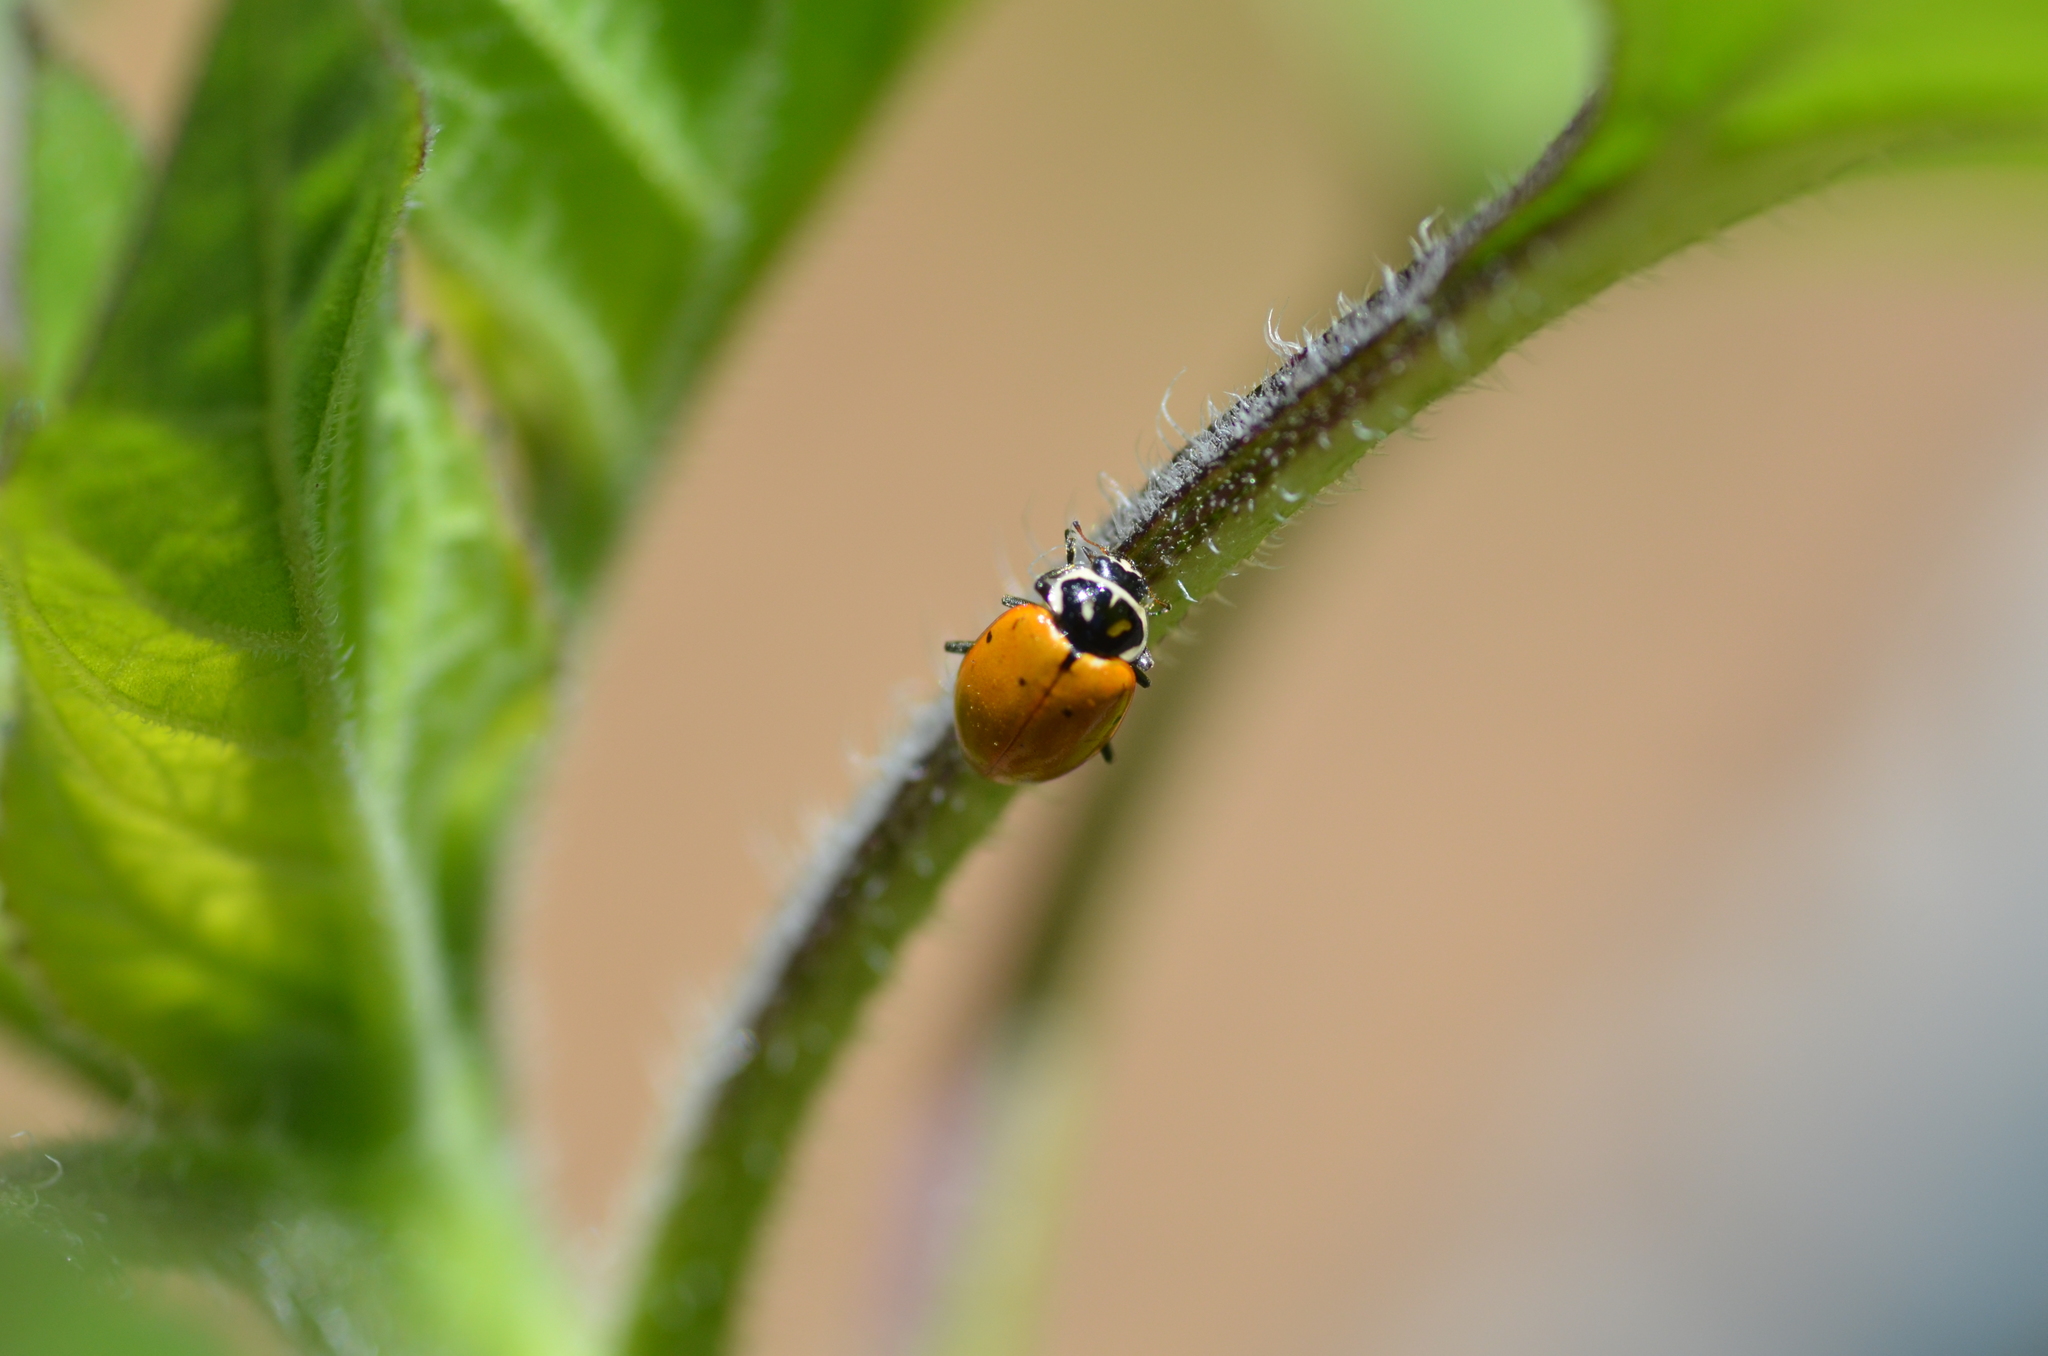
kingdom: Animalia
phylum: Arthropoda
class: Insecta
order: Coleoptera
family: Coccinellidae
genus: Hippodamia
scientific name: Hippodamia convergens
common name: Convergent lady beetle
